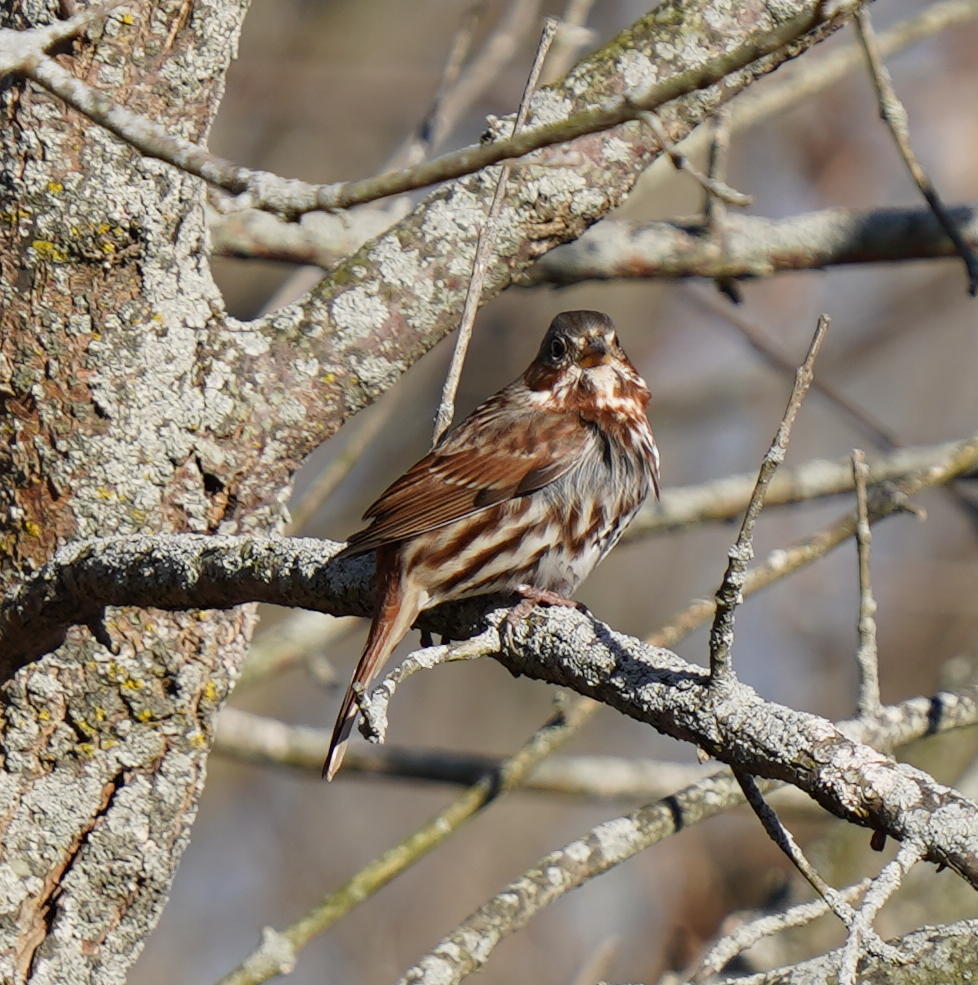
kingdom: Animalia
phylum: Chordata
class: Aves
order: Passeriformes
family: Passerellidae
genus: Passerella
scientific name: Passerella iliaca
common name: Fox sparrow
